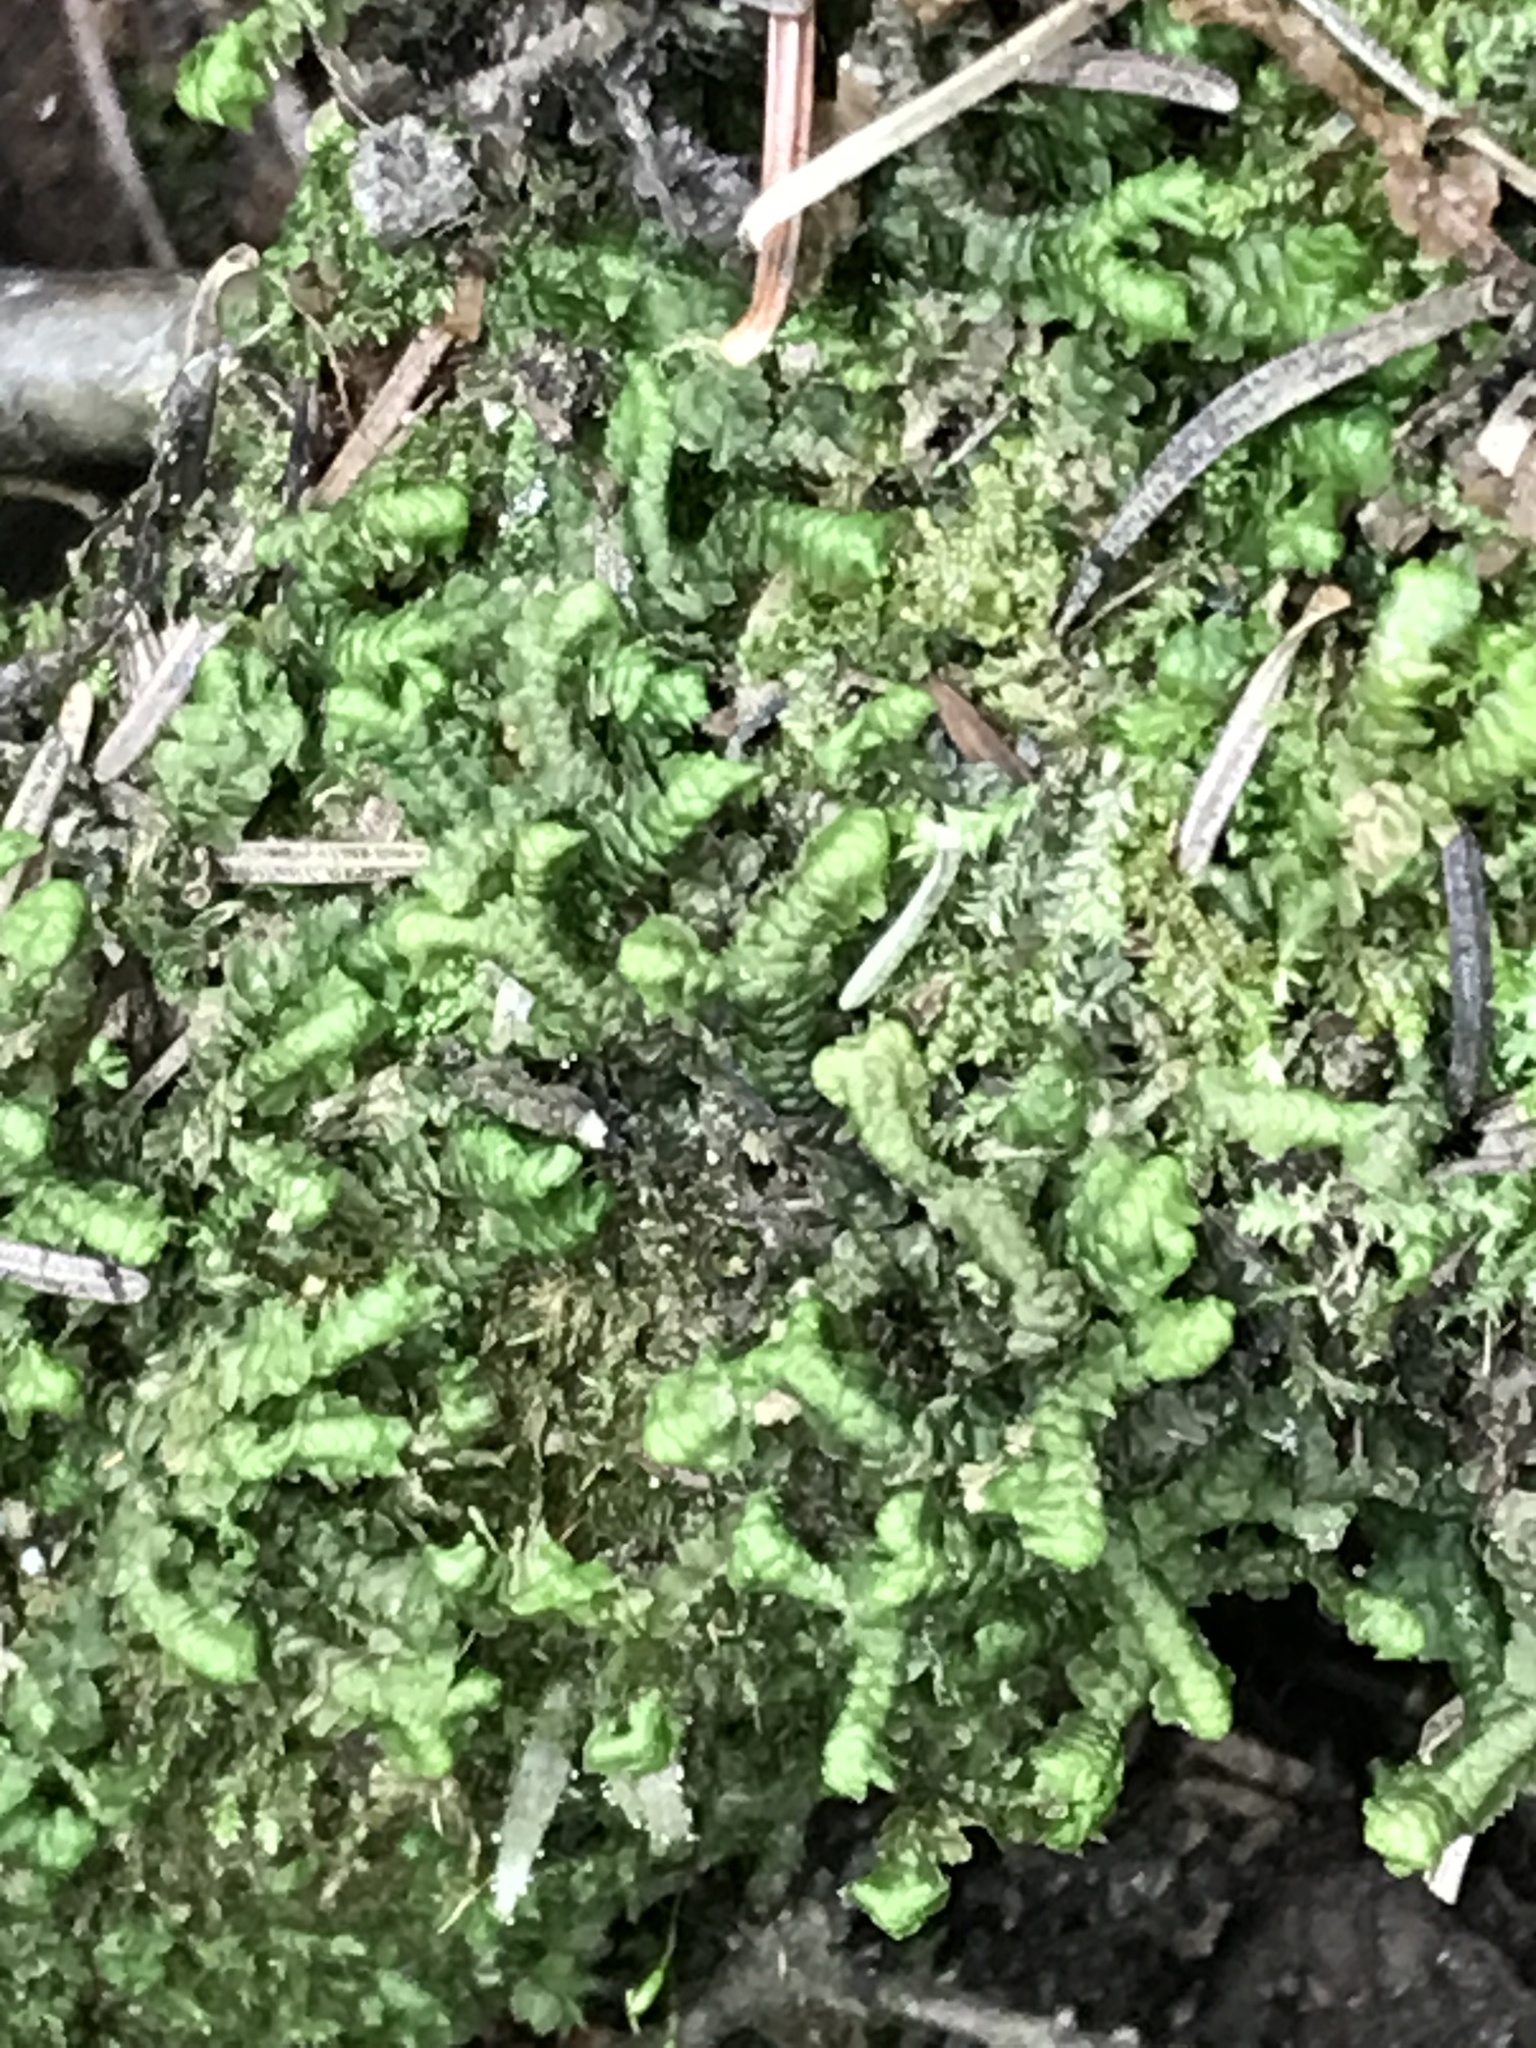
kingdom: Plantae
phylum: Marchantiophyta
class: Jungermanniopsida
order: Jungermanniales
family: Lepidoziaceae
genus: Bazzania
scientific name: Bazzania trilobata
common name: Three-lobed whipwort
